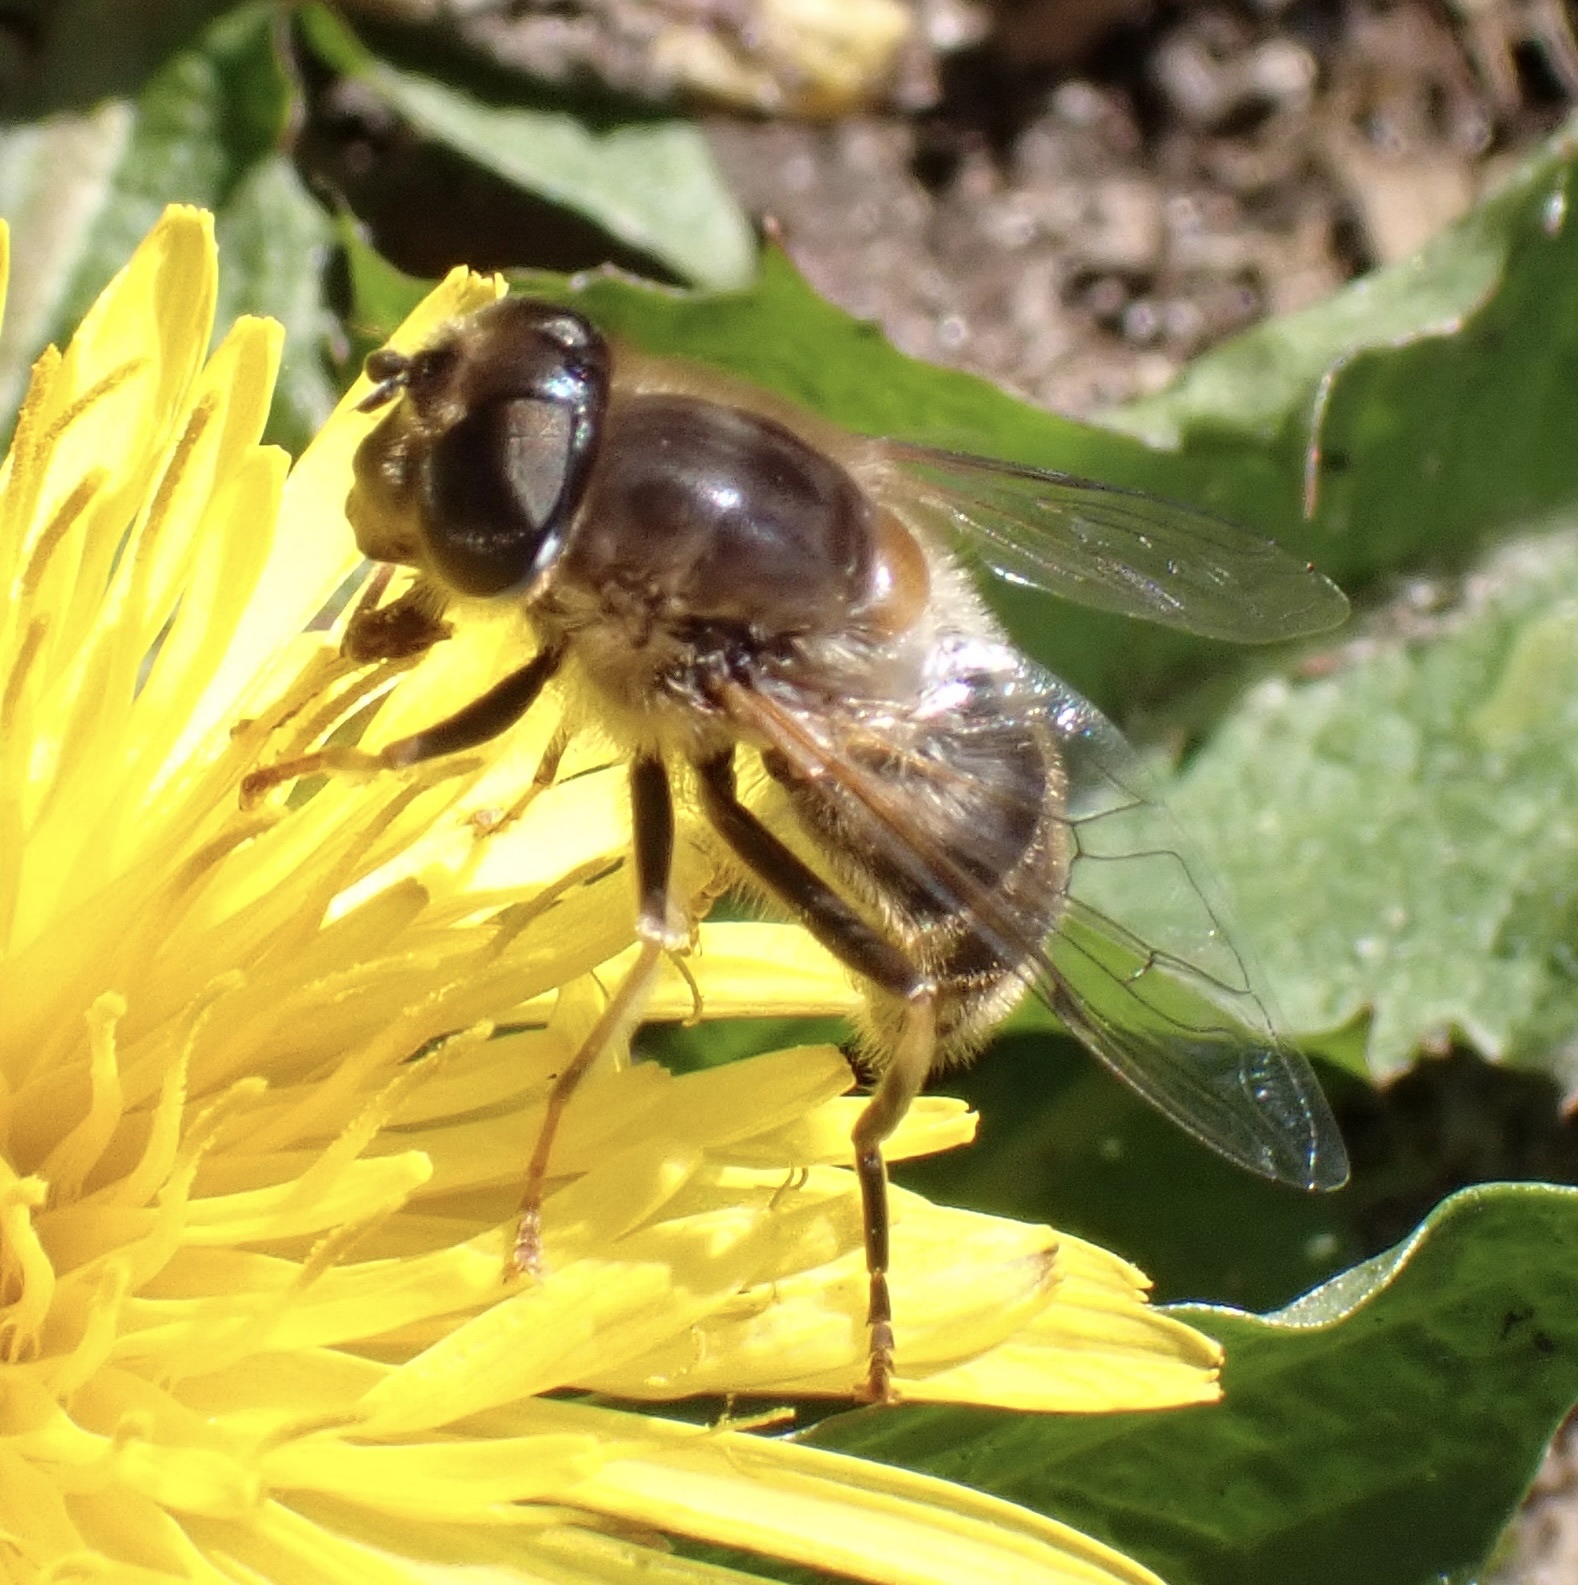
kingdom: Animalia
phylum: Arthropoda
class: Insecta
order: Diptera
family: Syrphidae
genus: Eristalis
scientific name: Eristalis pertinax
